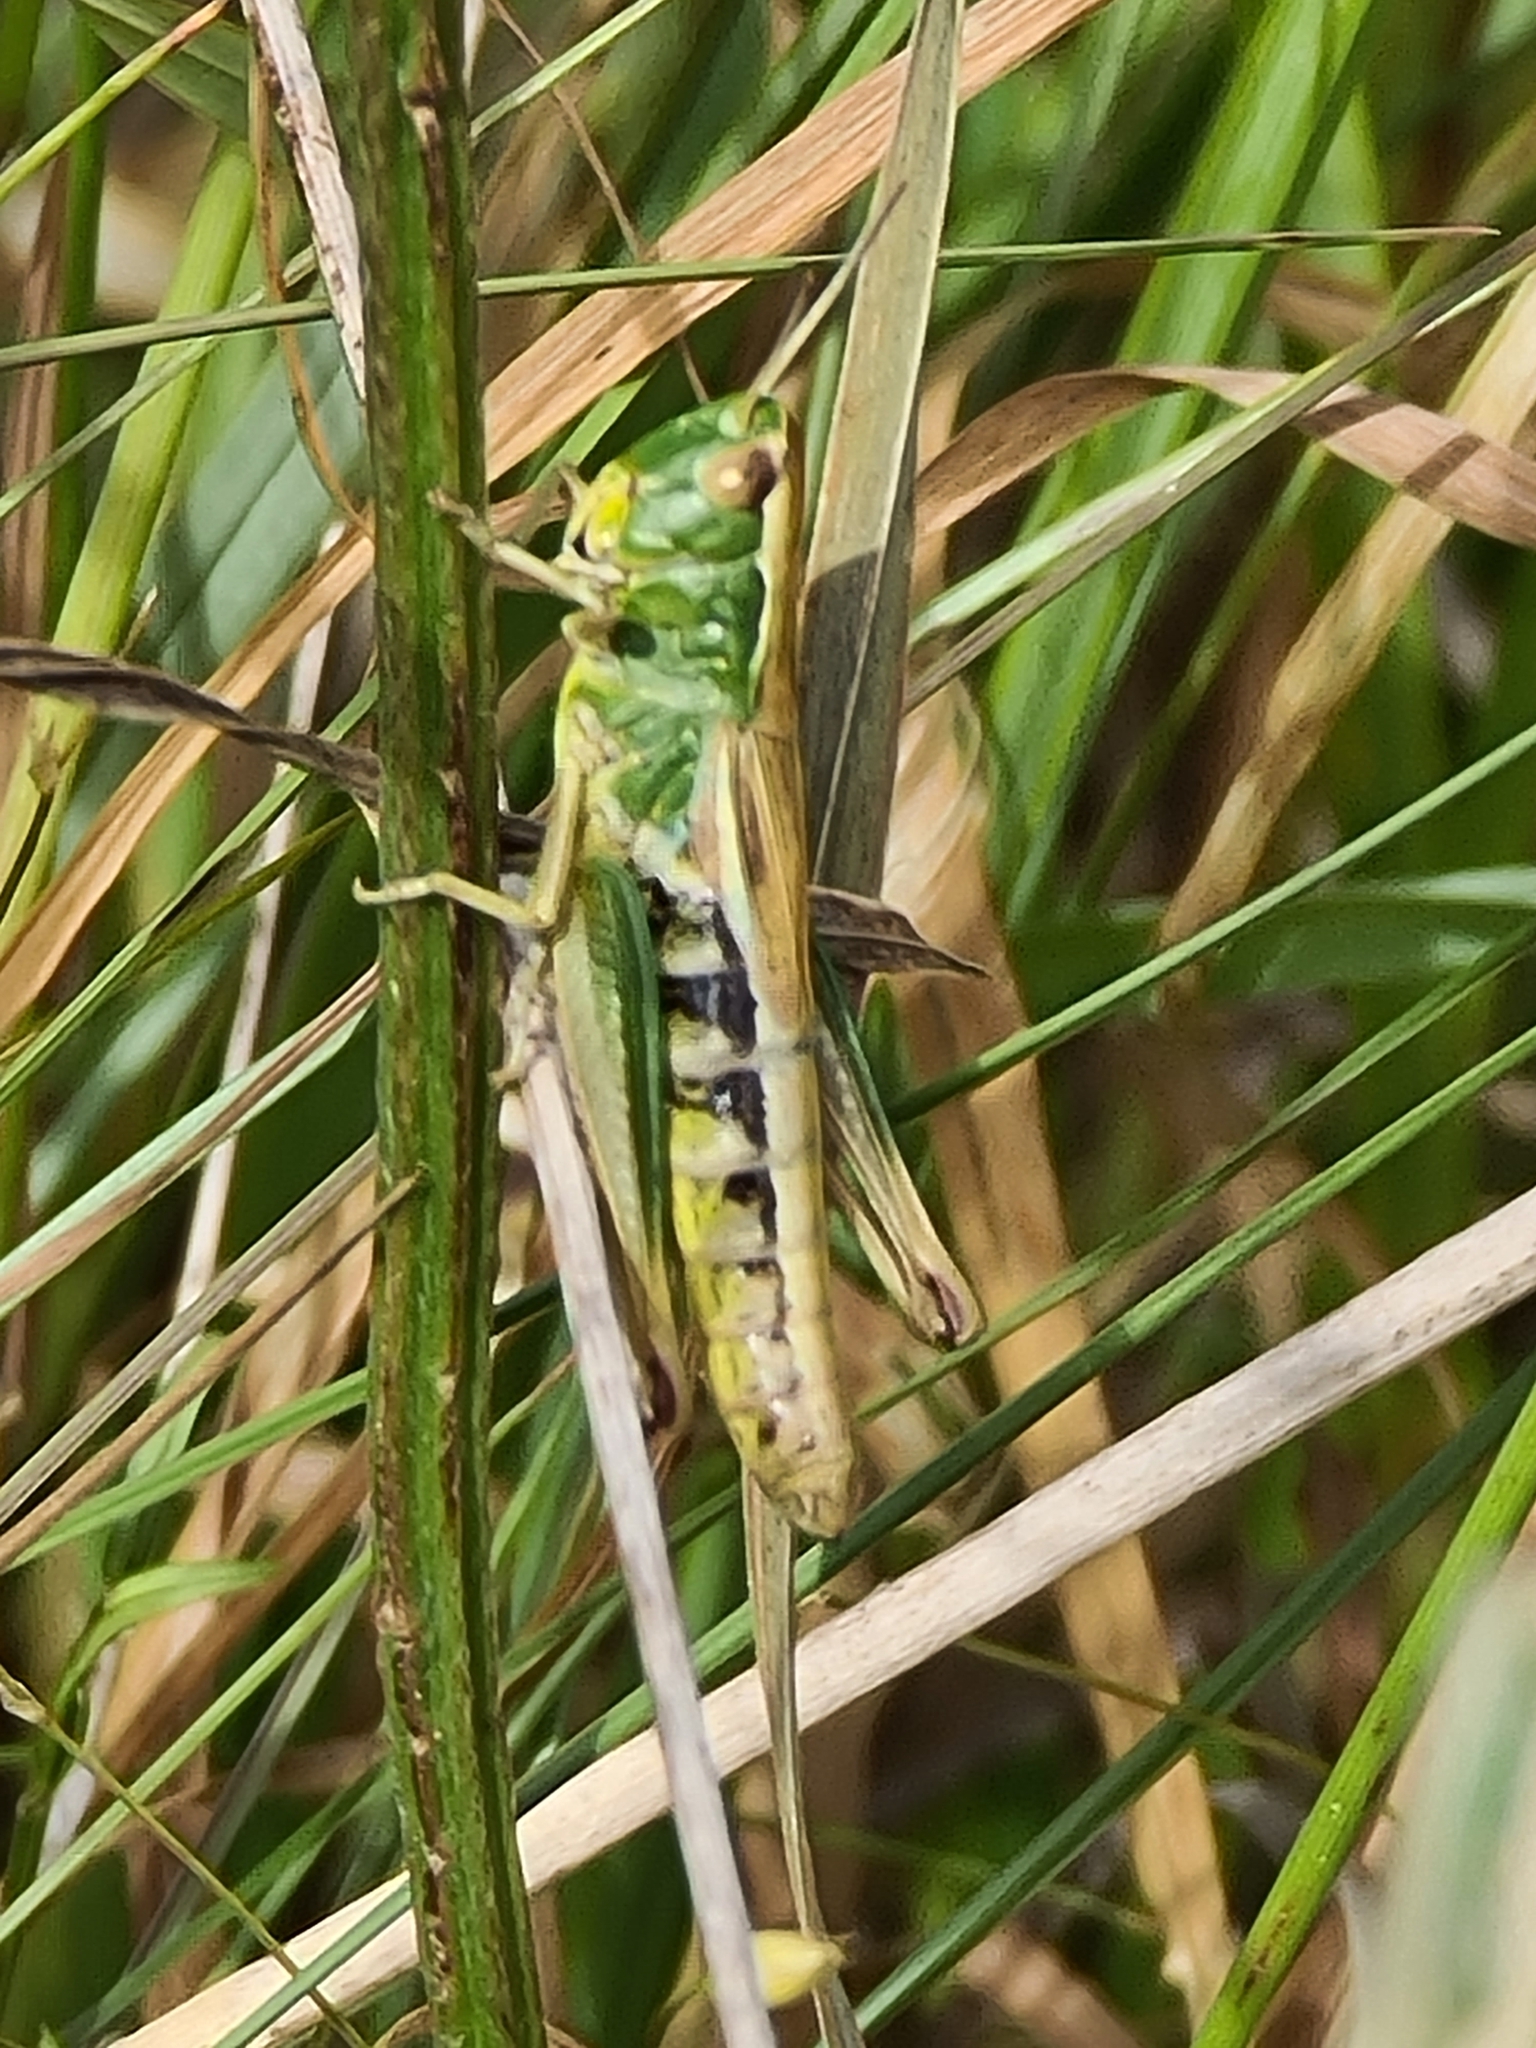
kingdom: Animalia
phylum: Arthropoda
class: Insecta
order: Orthoptera
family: Acrididae
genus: Pseudochorthippus
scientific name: Pseudochorthippus parallelus
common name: Meadow grasshopper
